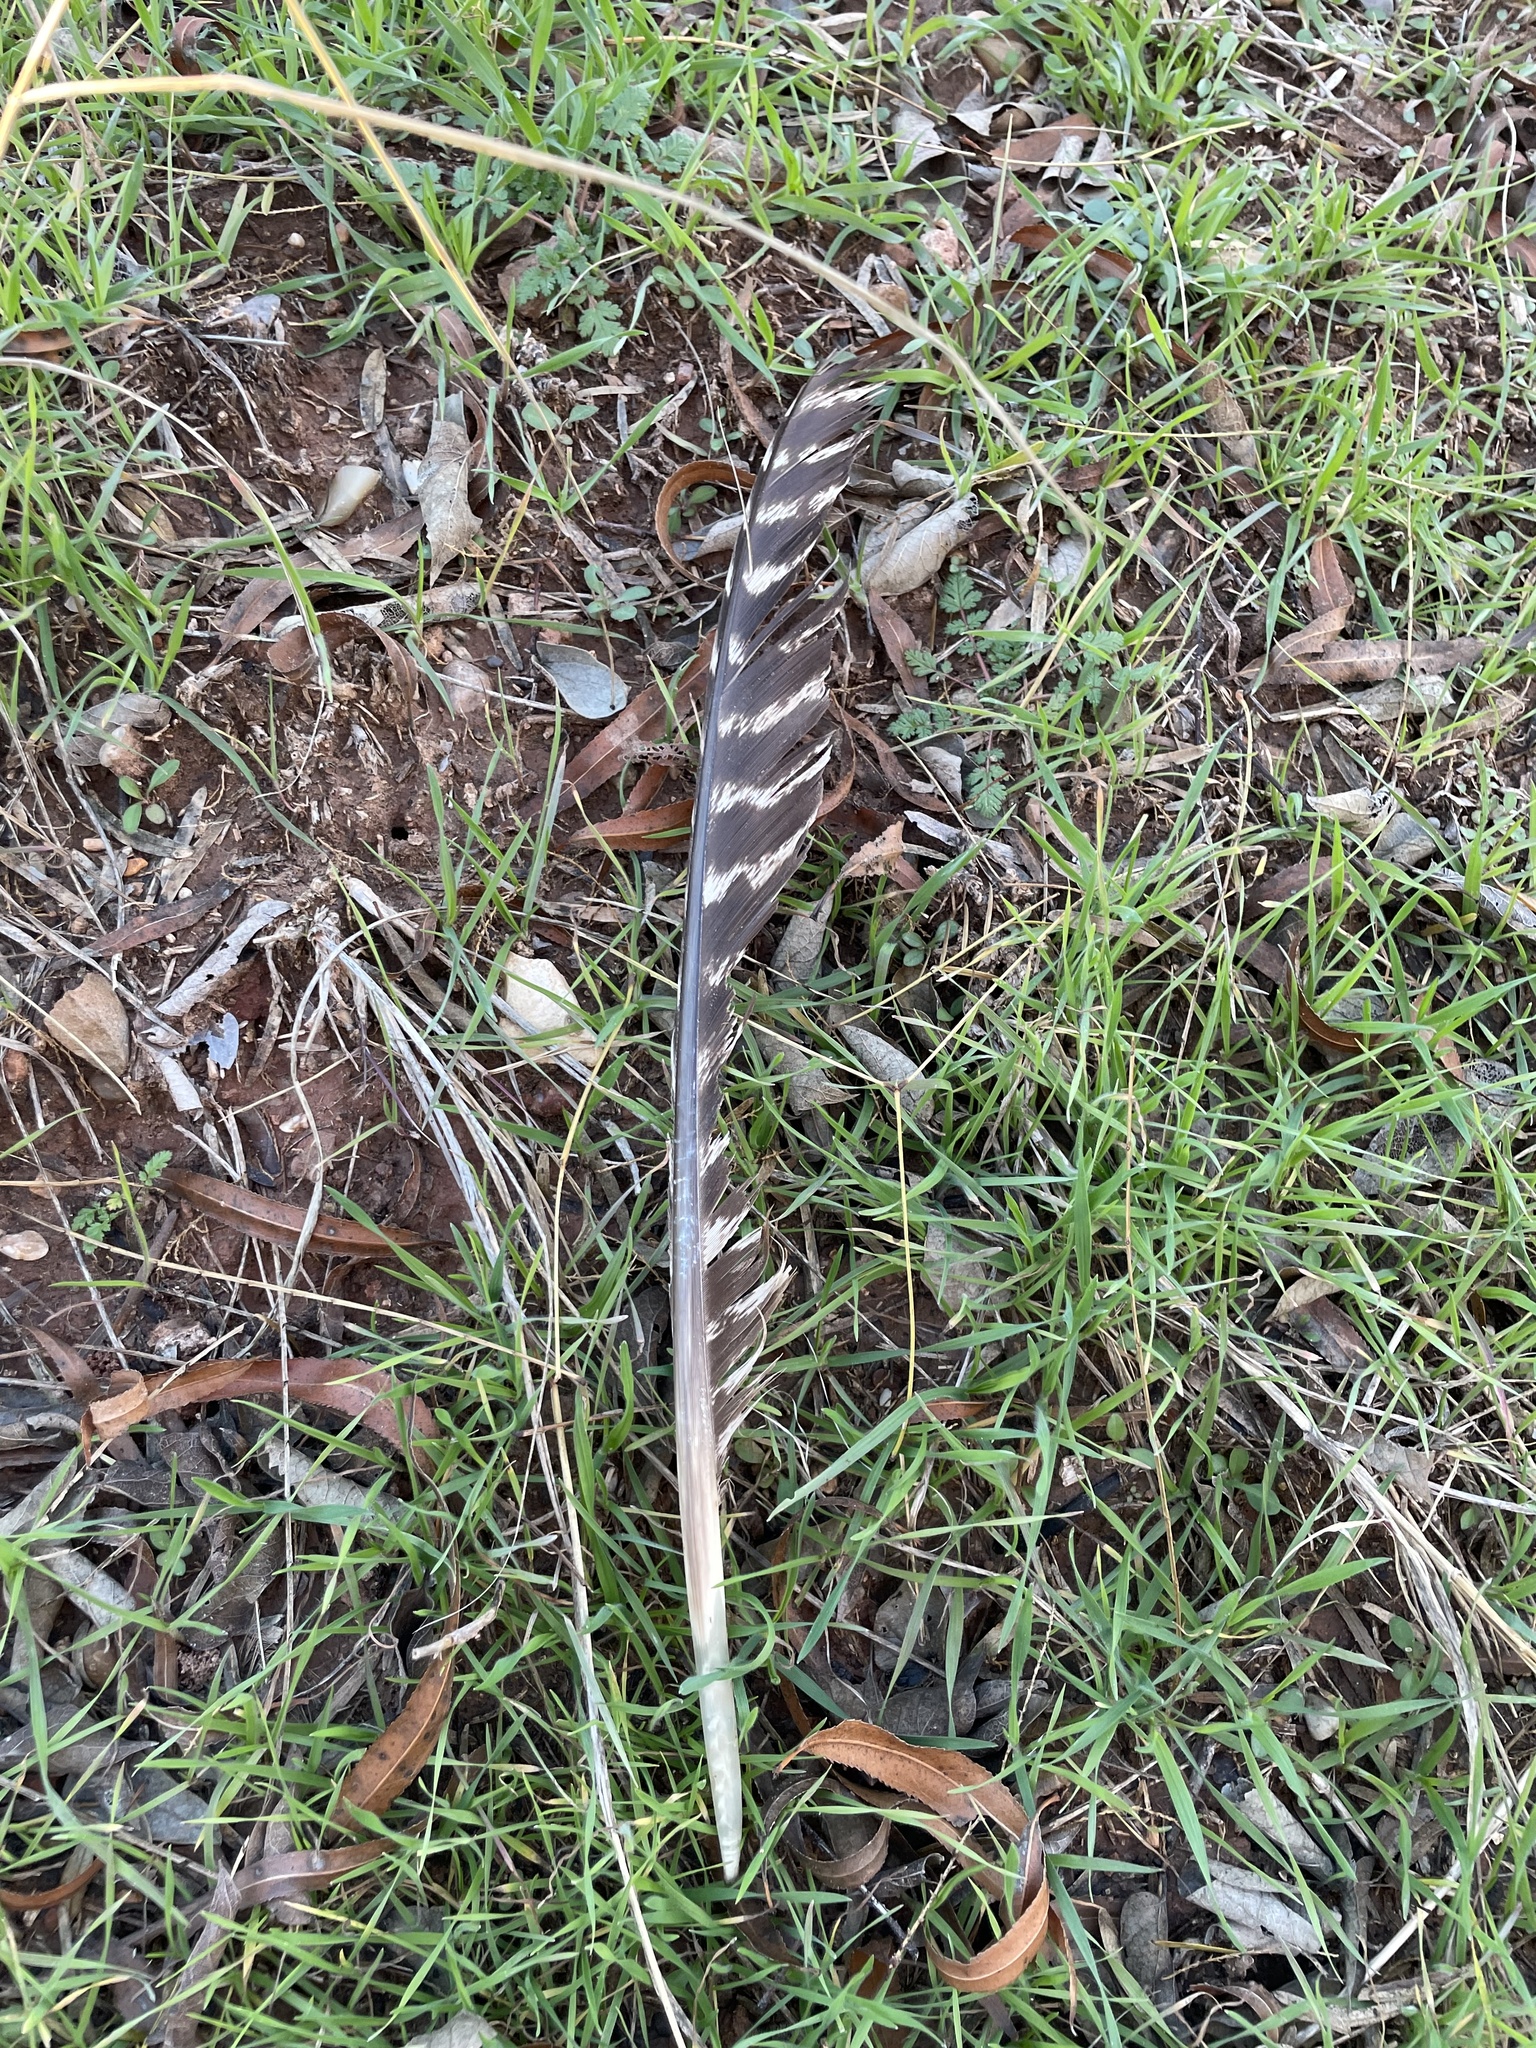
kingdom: Animalia
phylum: Chordata
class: Aves
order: Galliformes
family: Phasianidae
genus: Meleagris
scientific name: Meleagris gallopavo
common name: Wild turkey
